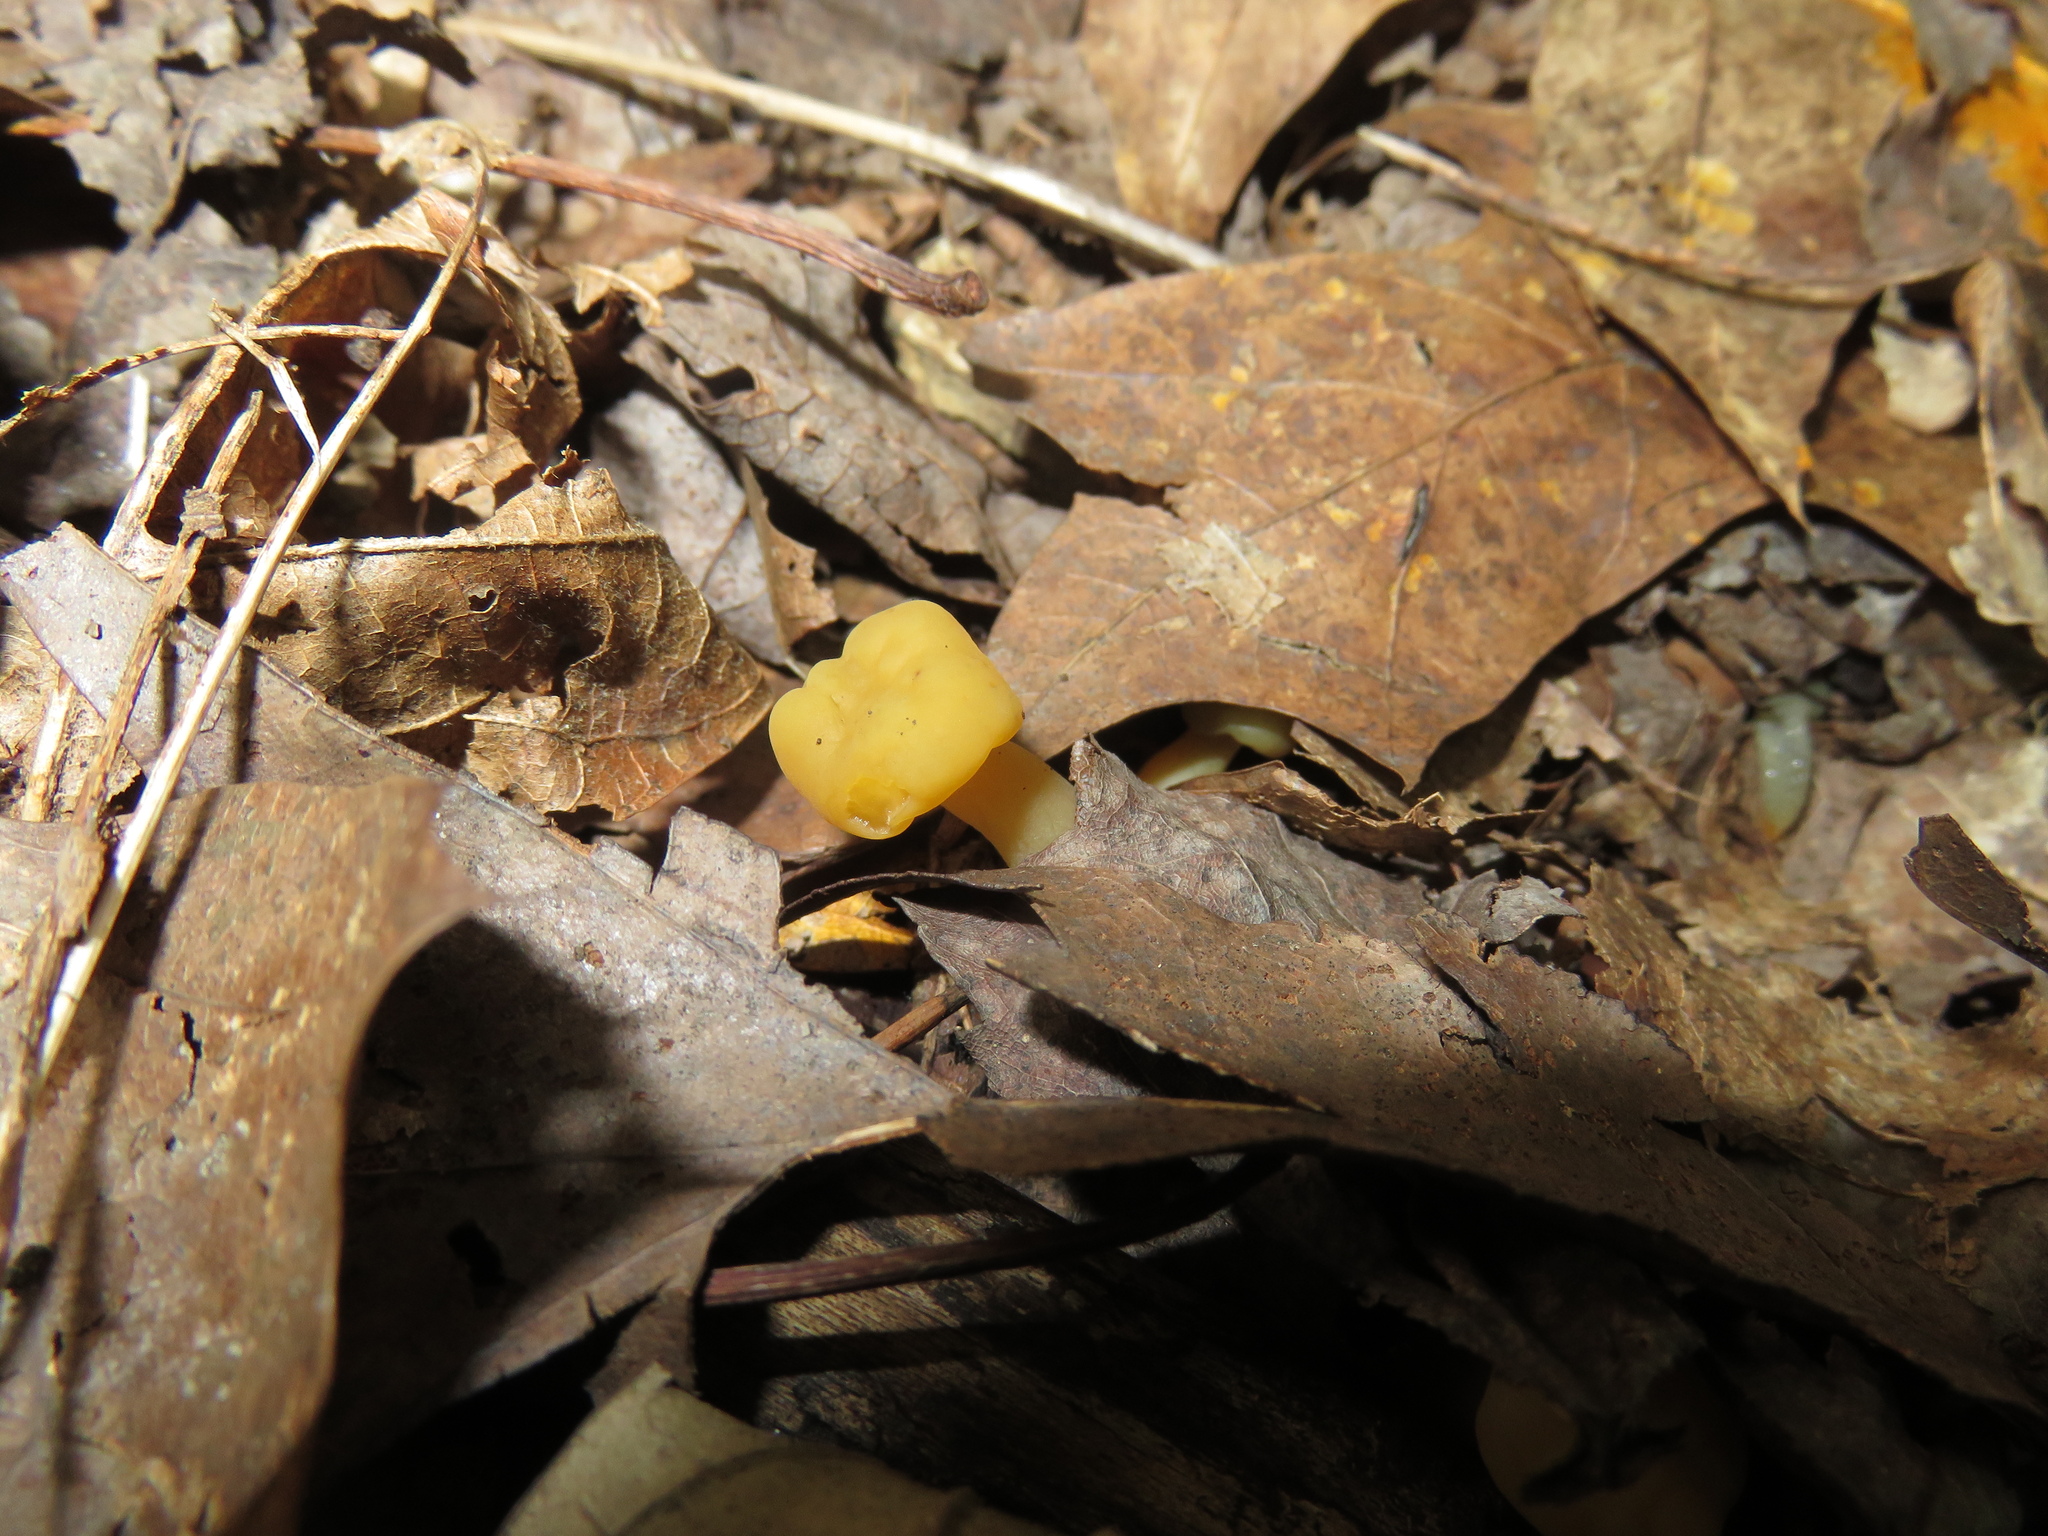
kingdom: Fungi
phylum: Ascomycota
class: Leotiomycetes
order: Leotiales
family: Leotiaceae
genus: Leotia
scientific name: Leotia lubrica
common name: Jellybaby
